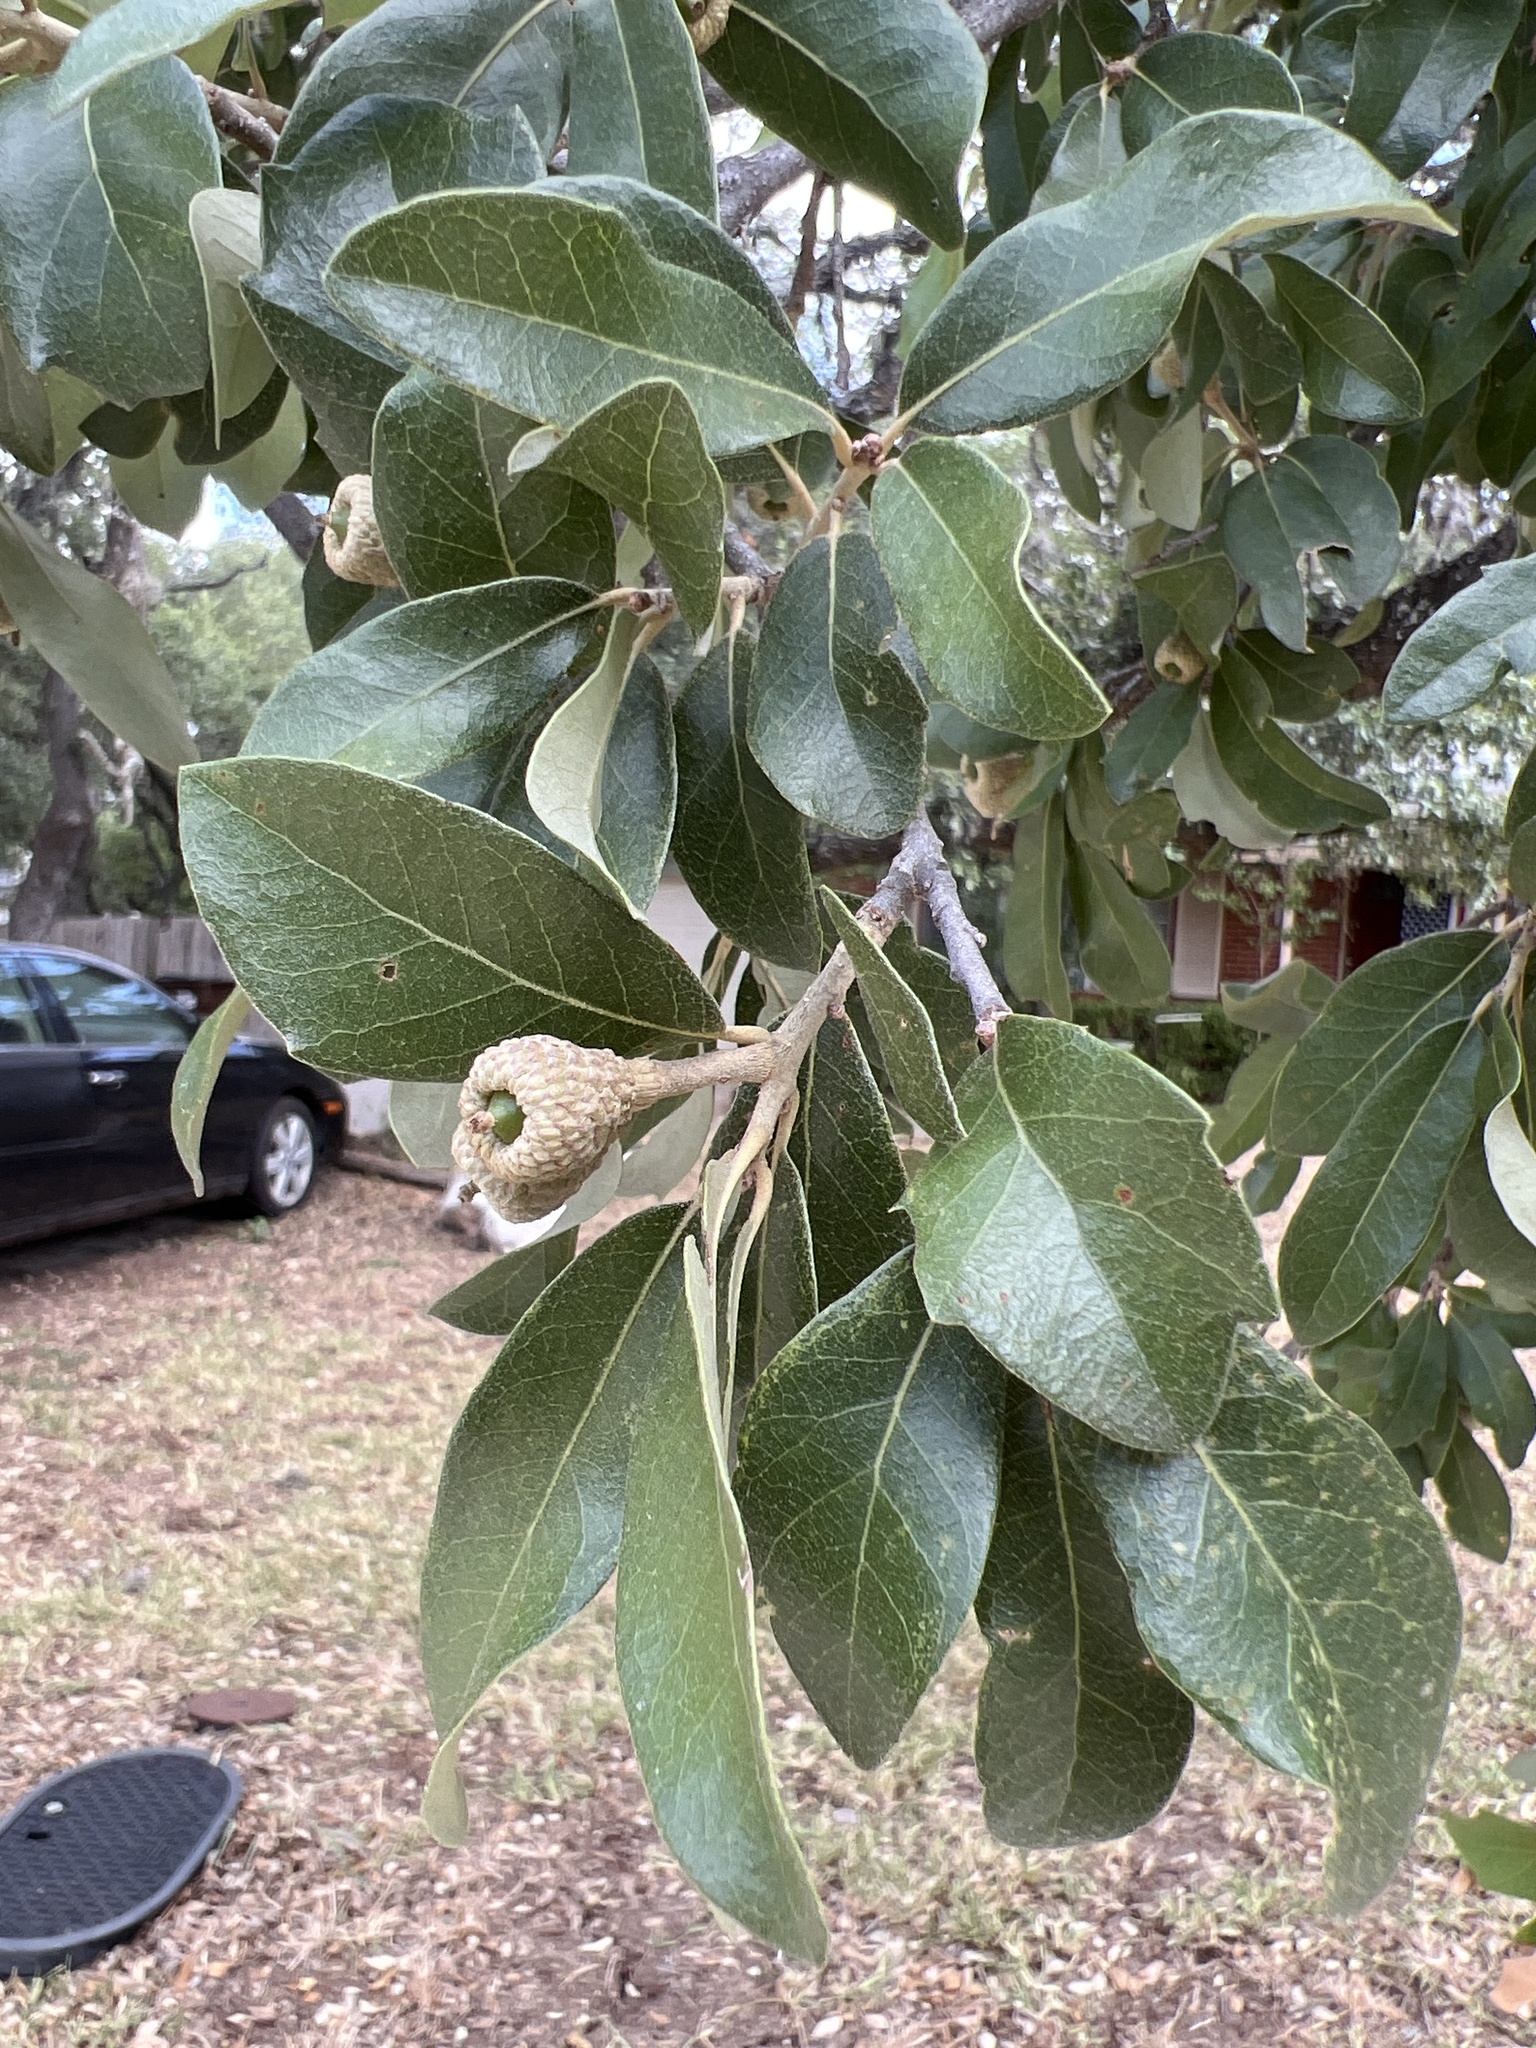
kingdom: Plantae
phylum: Tracheophyta
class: Magnoliopsida
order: Fagales
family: Fagaceae
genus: Quercus
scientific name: Quercus fusiformis
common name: Texas live oak
